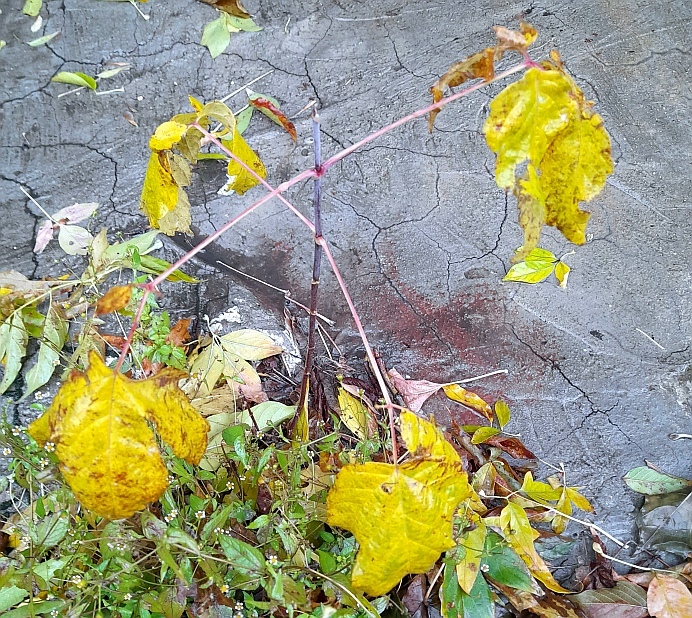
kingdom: Plantae
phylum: Tracheophyta
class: Magnoliopsida
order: Sapindales
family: Sapindaceae
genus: Acer
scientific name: Acer negundo
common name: Ashleaf maple
